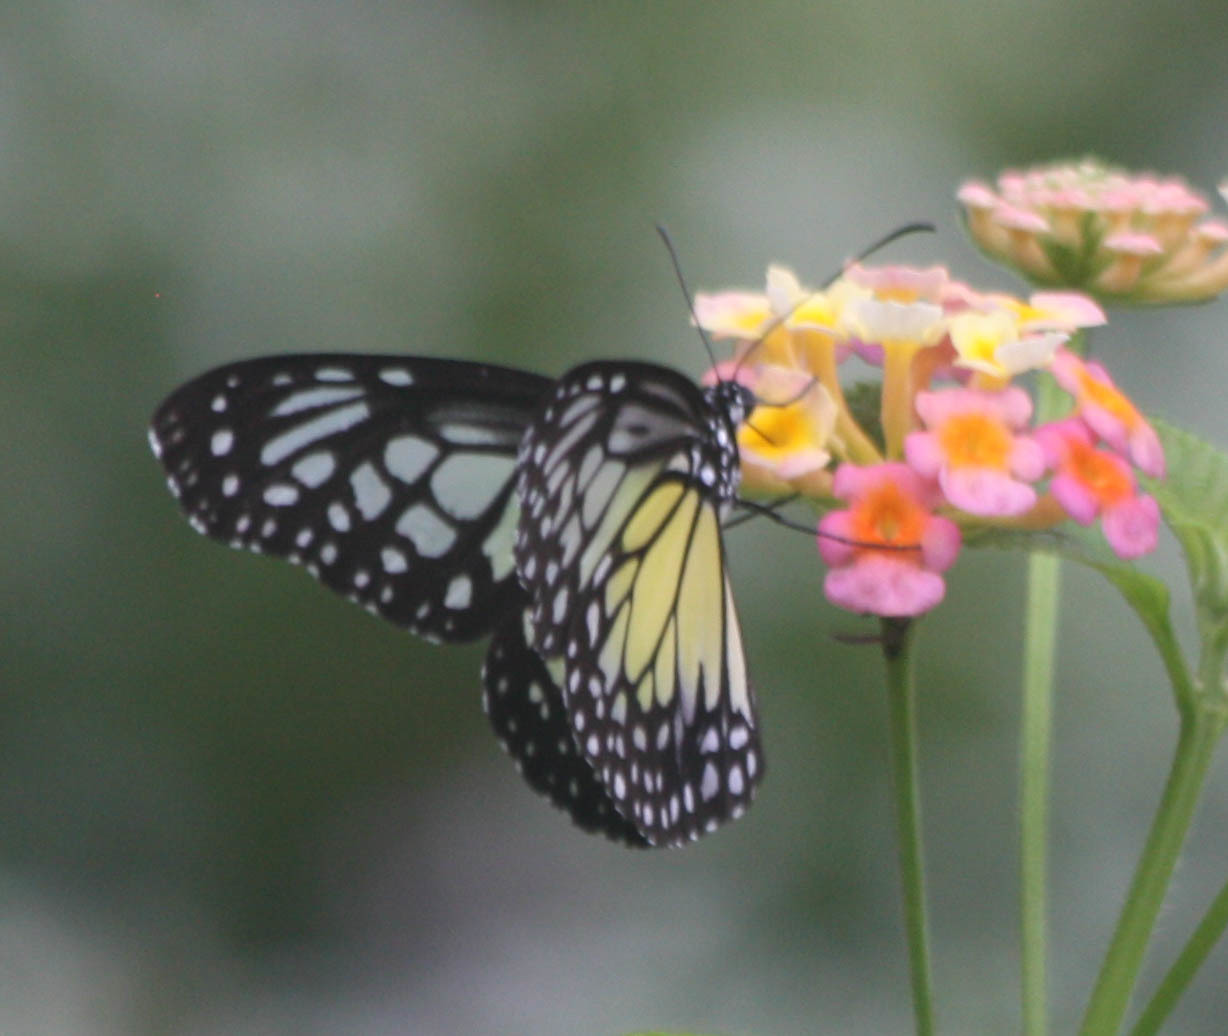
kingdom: Animalia
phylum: Arthropoda
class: Insecta
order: Lepidoptera
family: Nymphalidae
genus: Parantica
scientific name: Parantica aspasia
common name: Yellow glassy tiger
